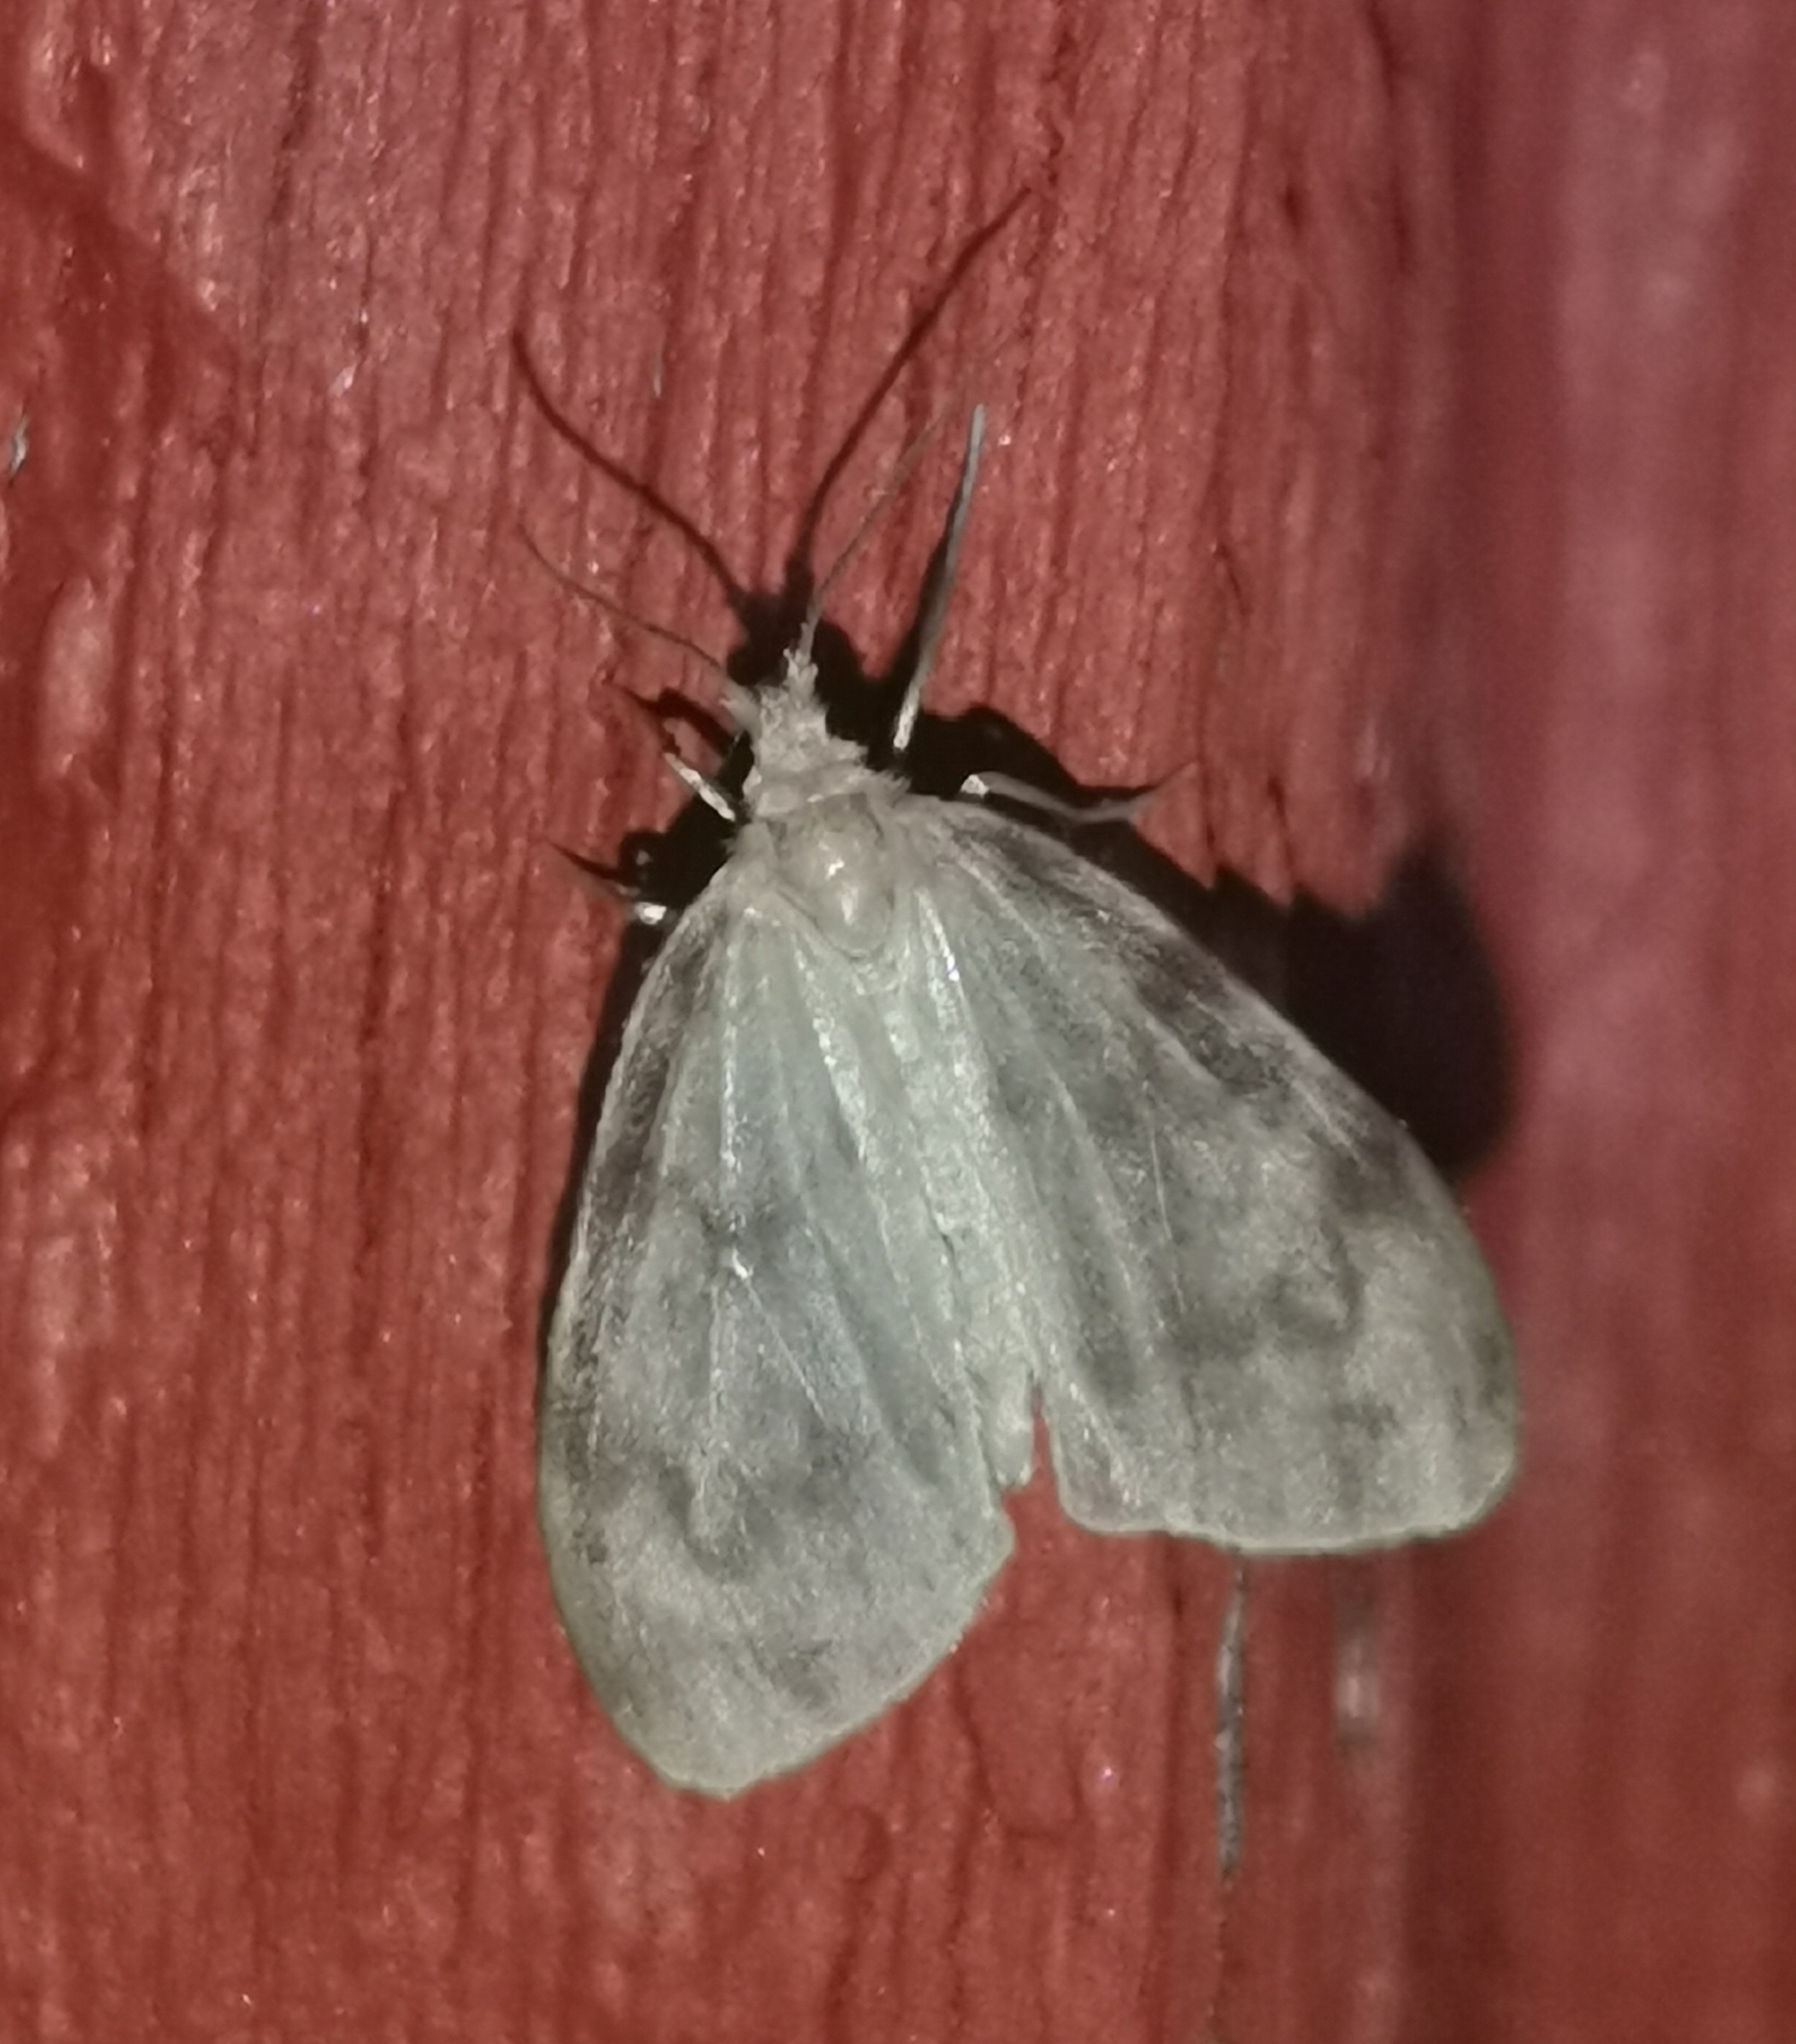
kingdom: Animalia
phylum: Arthropoda
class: Insecta
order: Lepidoptera
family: Erebidae
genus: Nudaria
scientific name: Nudaria mundana
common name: Muslin footman
